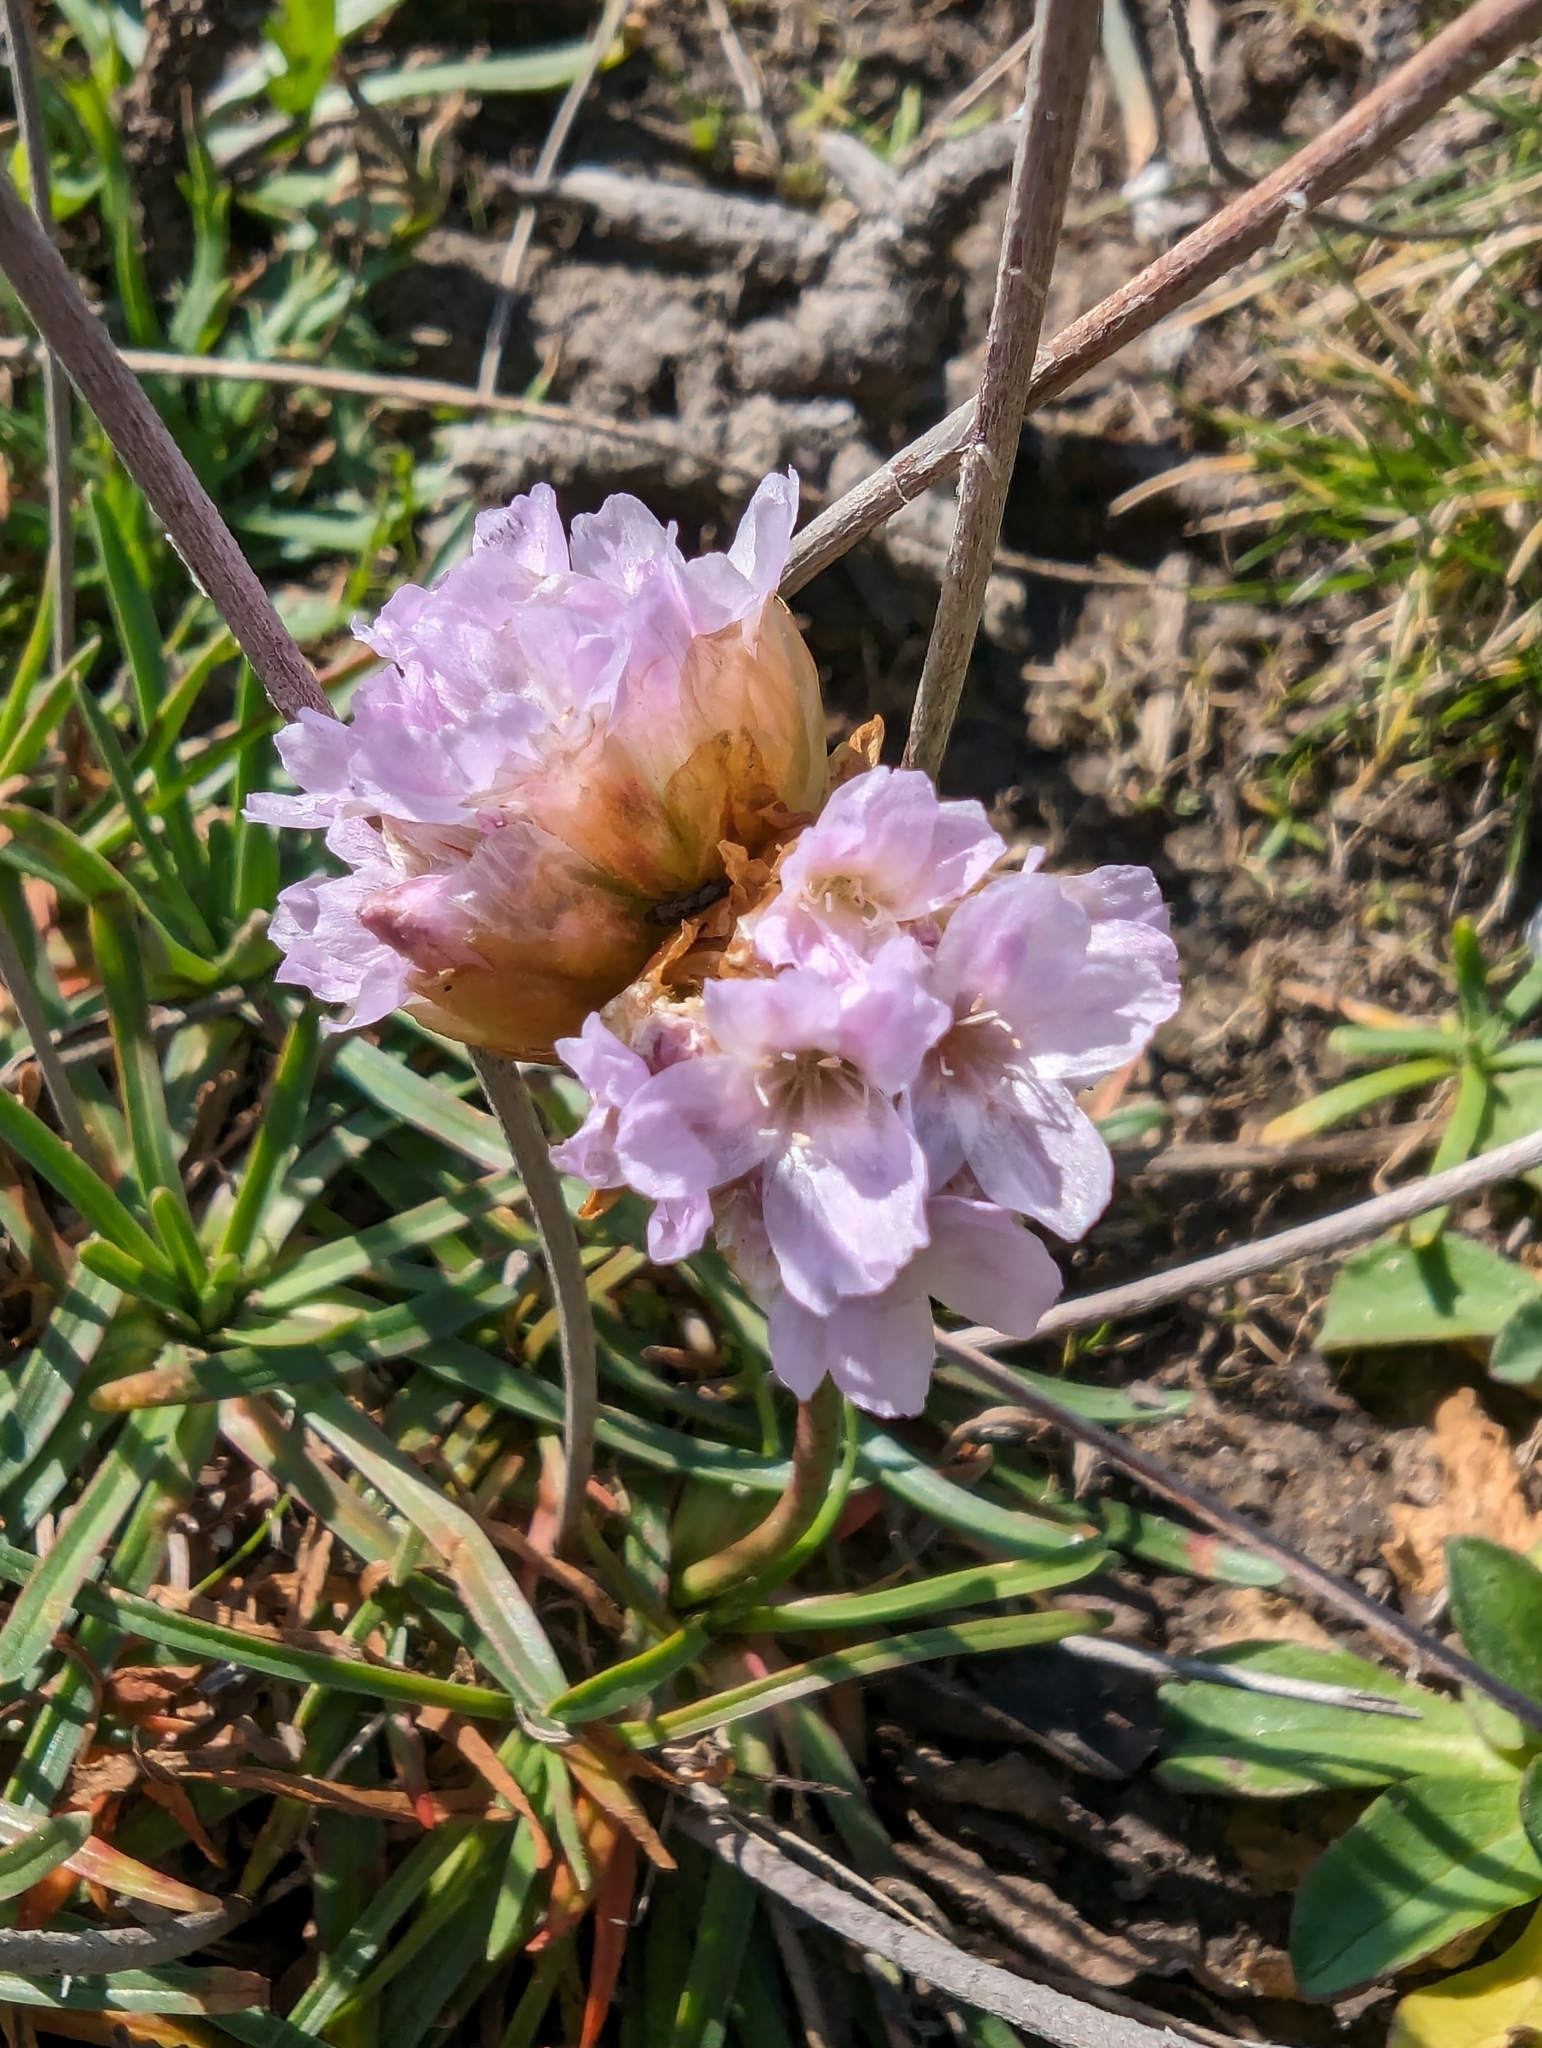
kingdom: Plantae
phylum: Tracheophyta
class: Magnoliopsida
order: Caryophyllales
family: Plumbaginaceae
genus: Armeria
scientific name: Armeria maritima
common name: Thrift
